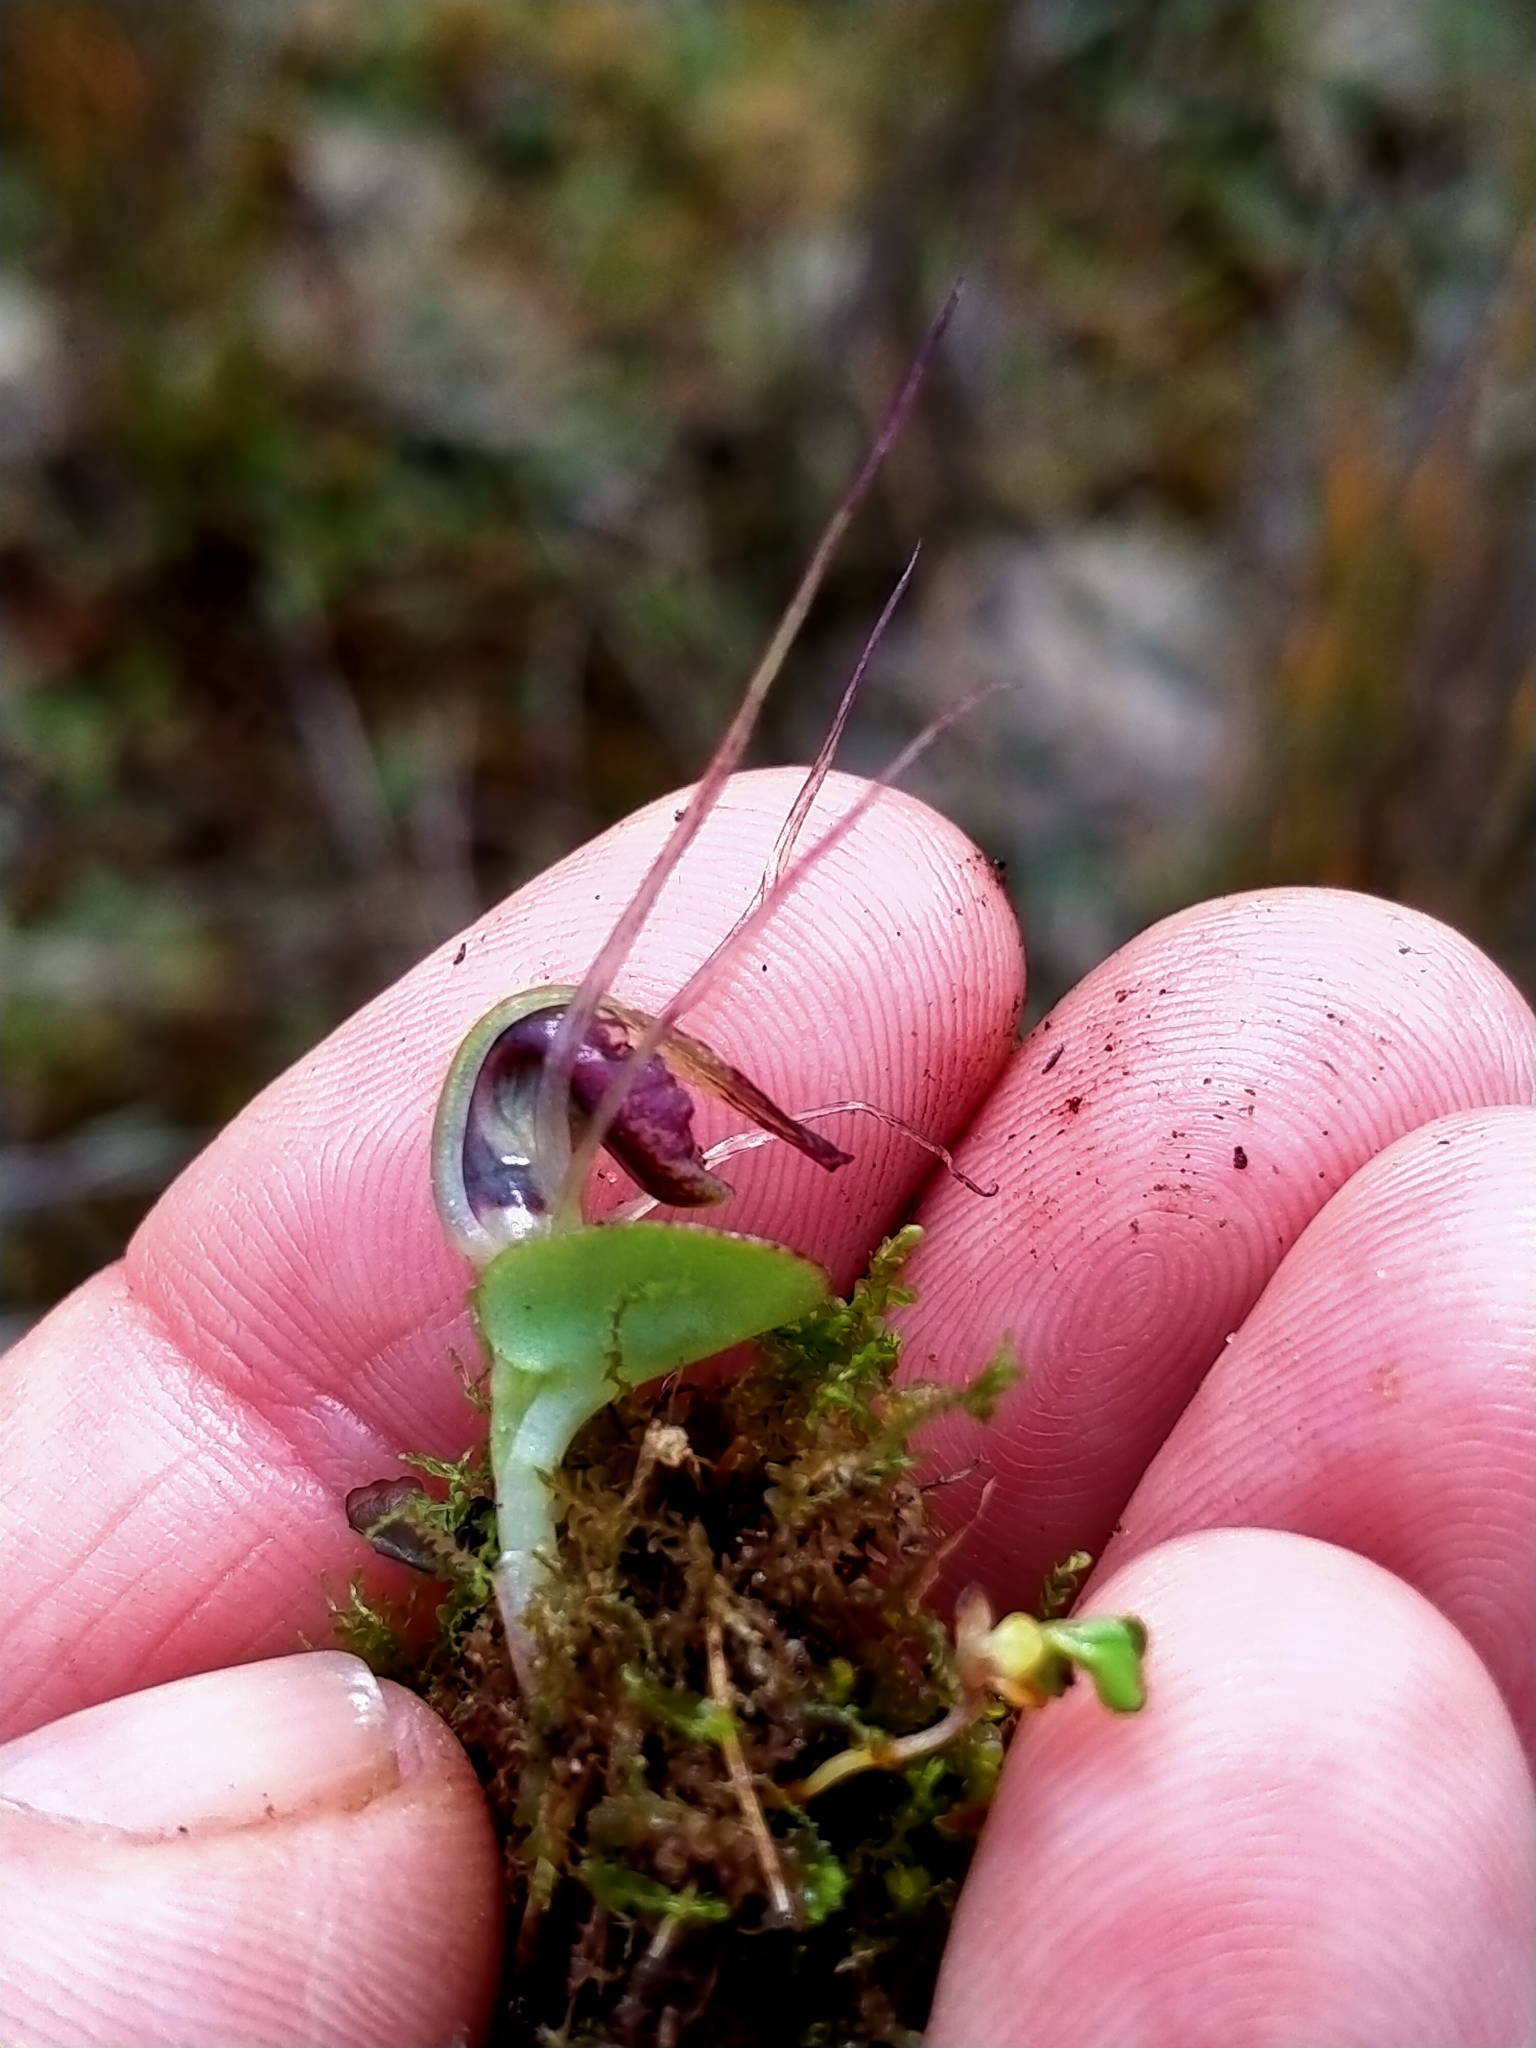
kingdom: Plantae
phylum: Tracheophyta
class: Liliopsida
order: Asparagales
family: Orchidaceae
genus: Corybas
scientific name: Corybas macranthus
